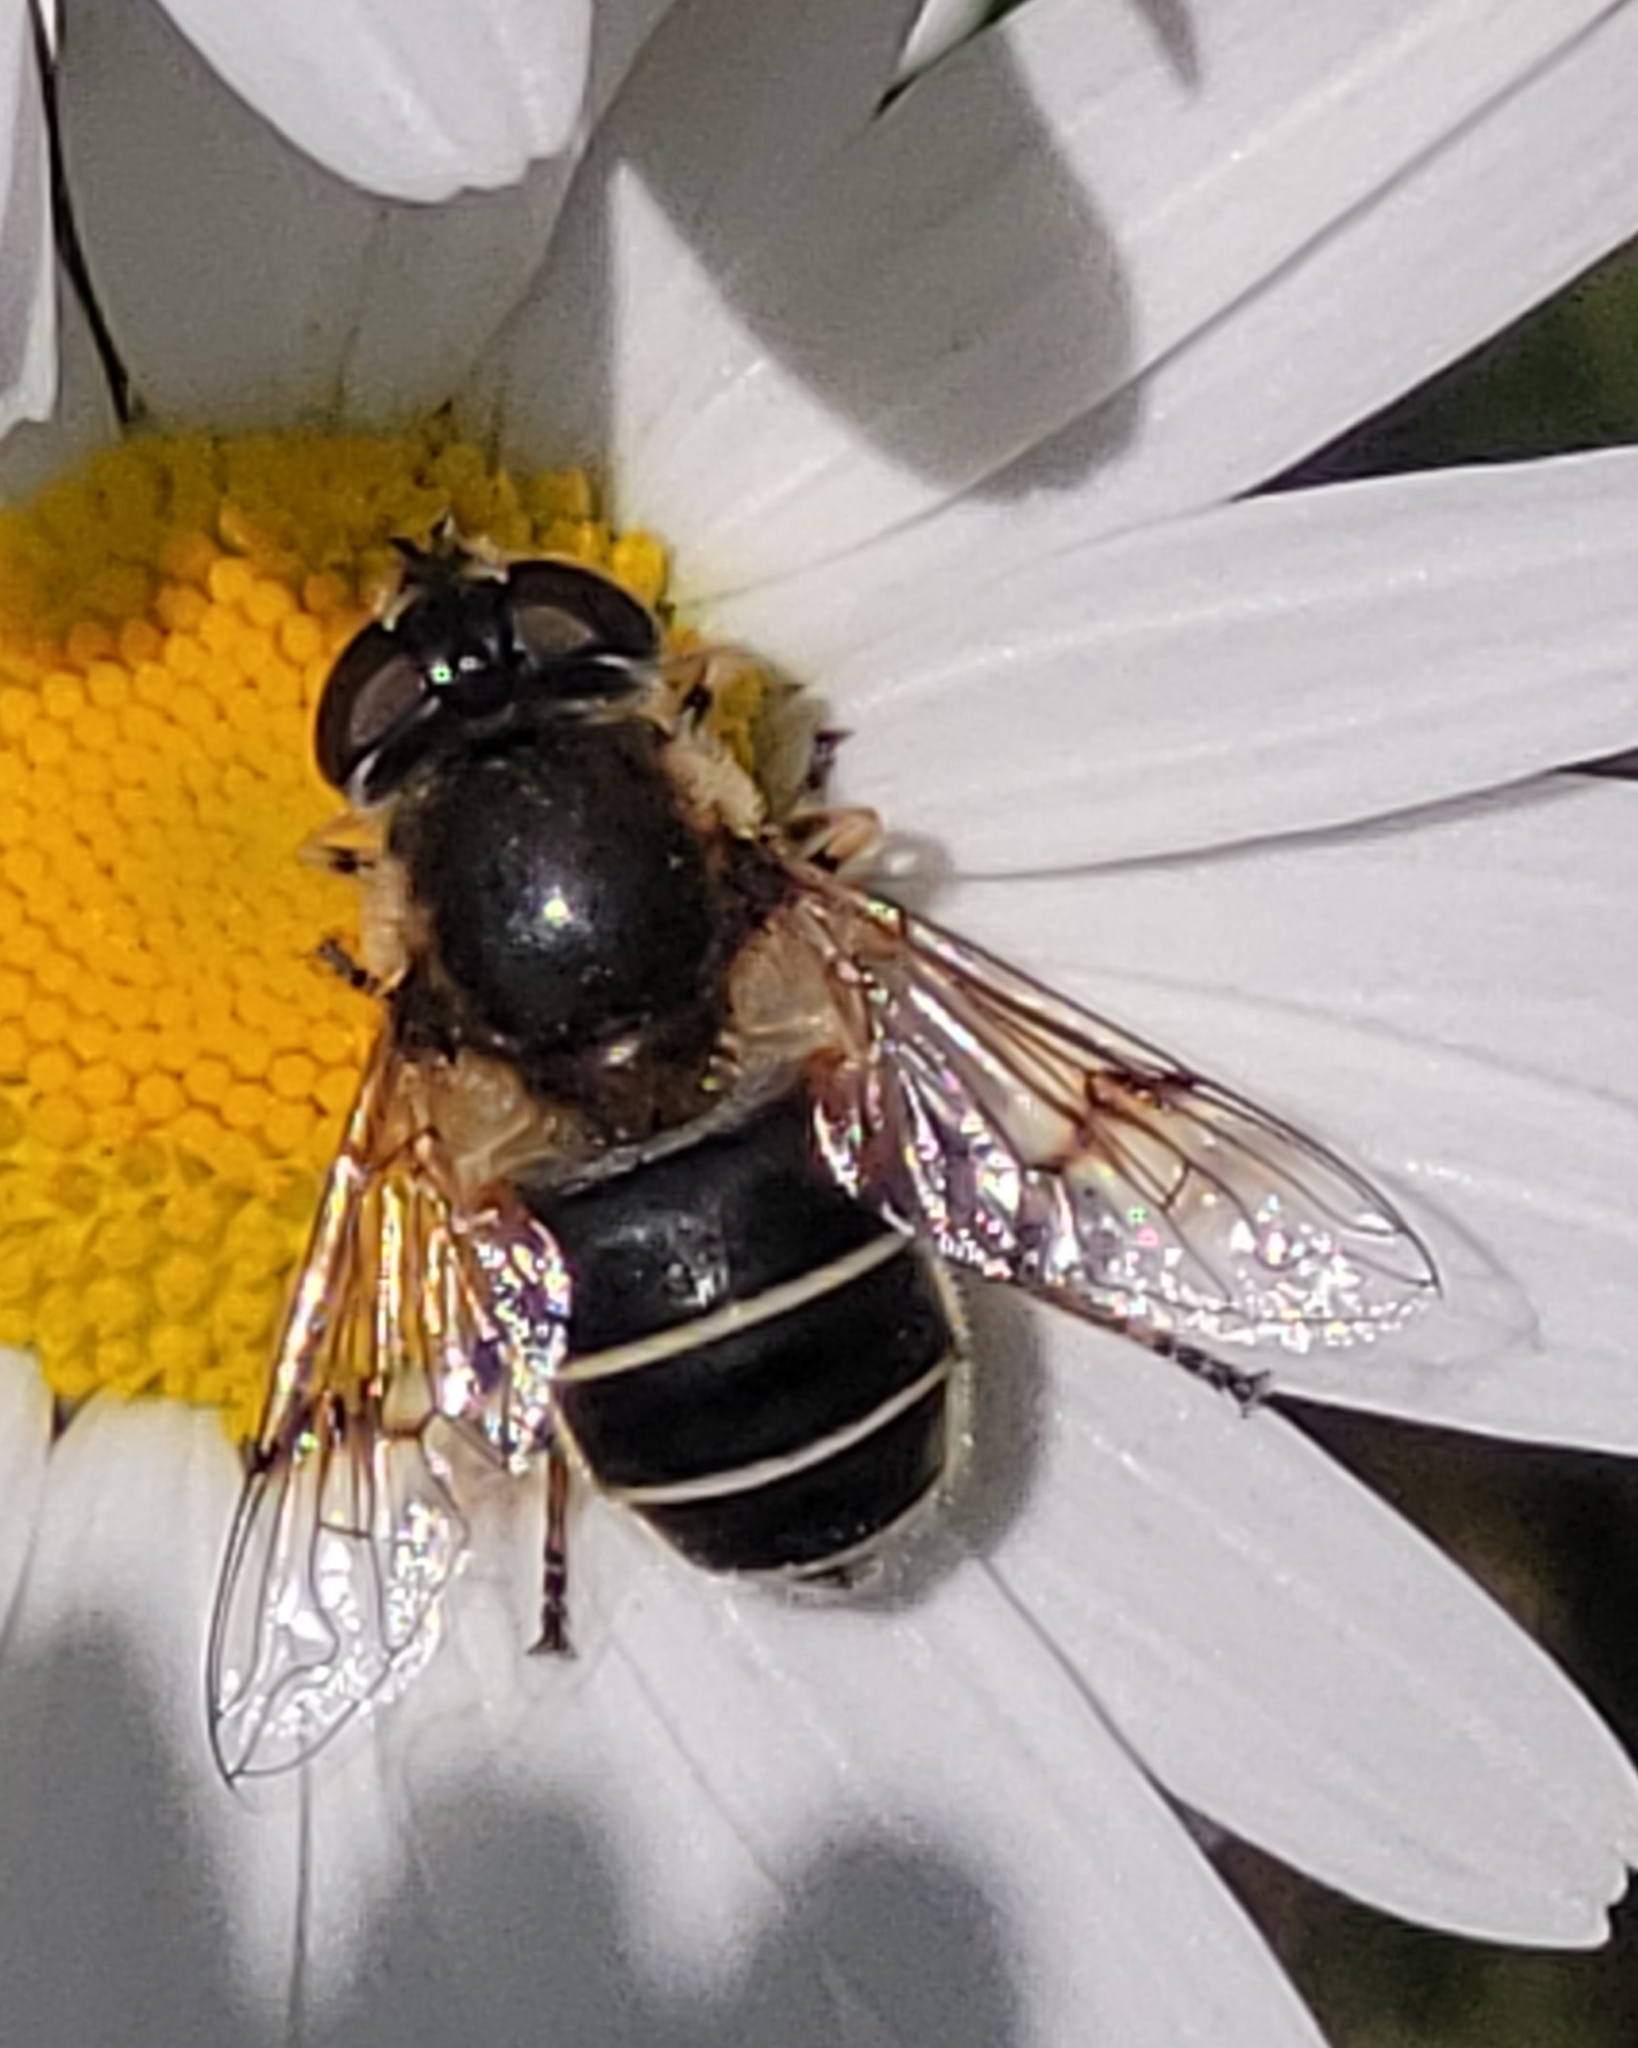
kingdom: Animalia
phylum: Arthropoda
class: Insecta
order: Diptera
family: Syrphidae
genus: Eristalis
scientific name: Eristalis obscura
